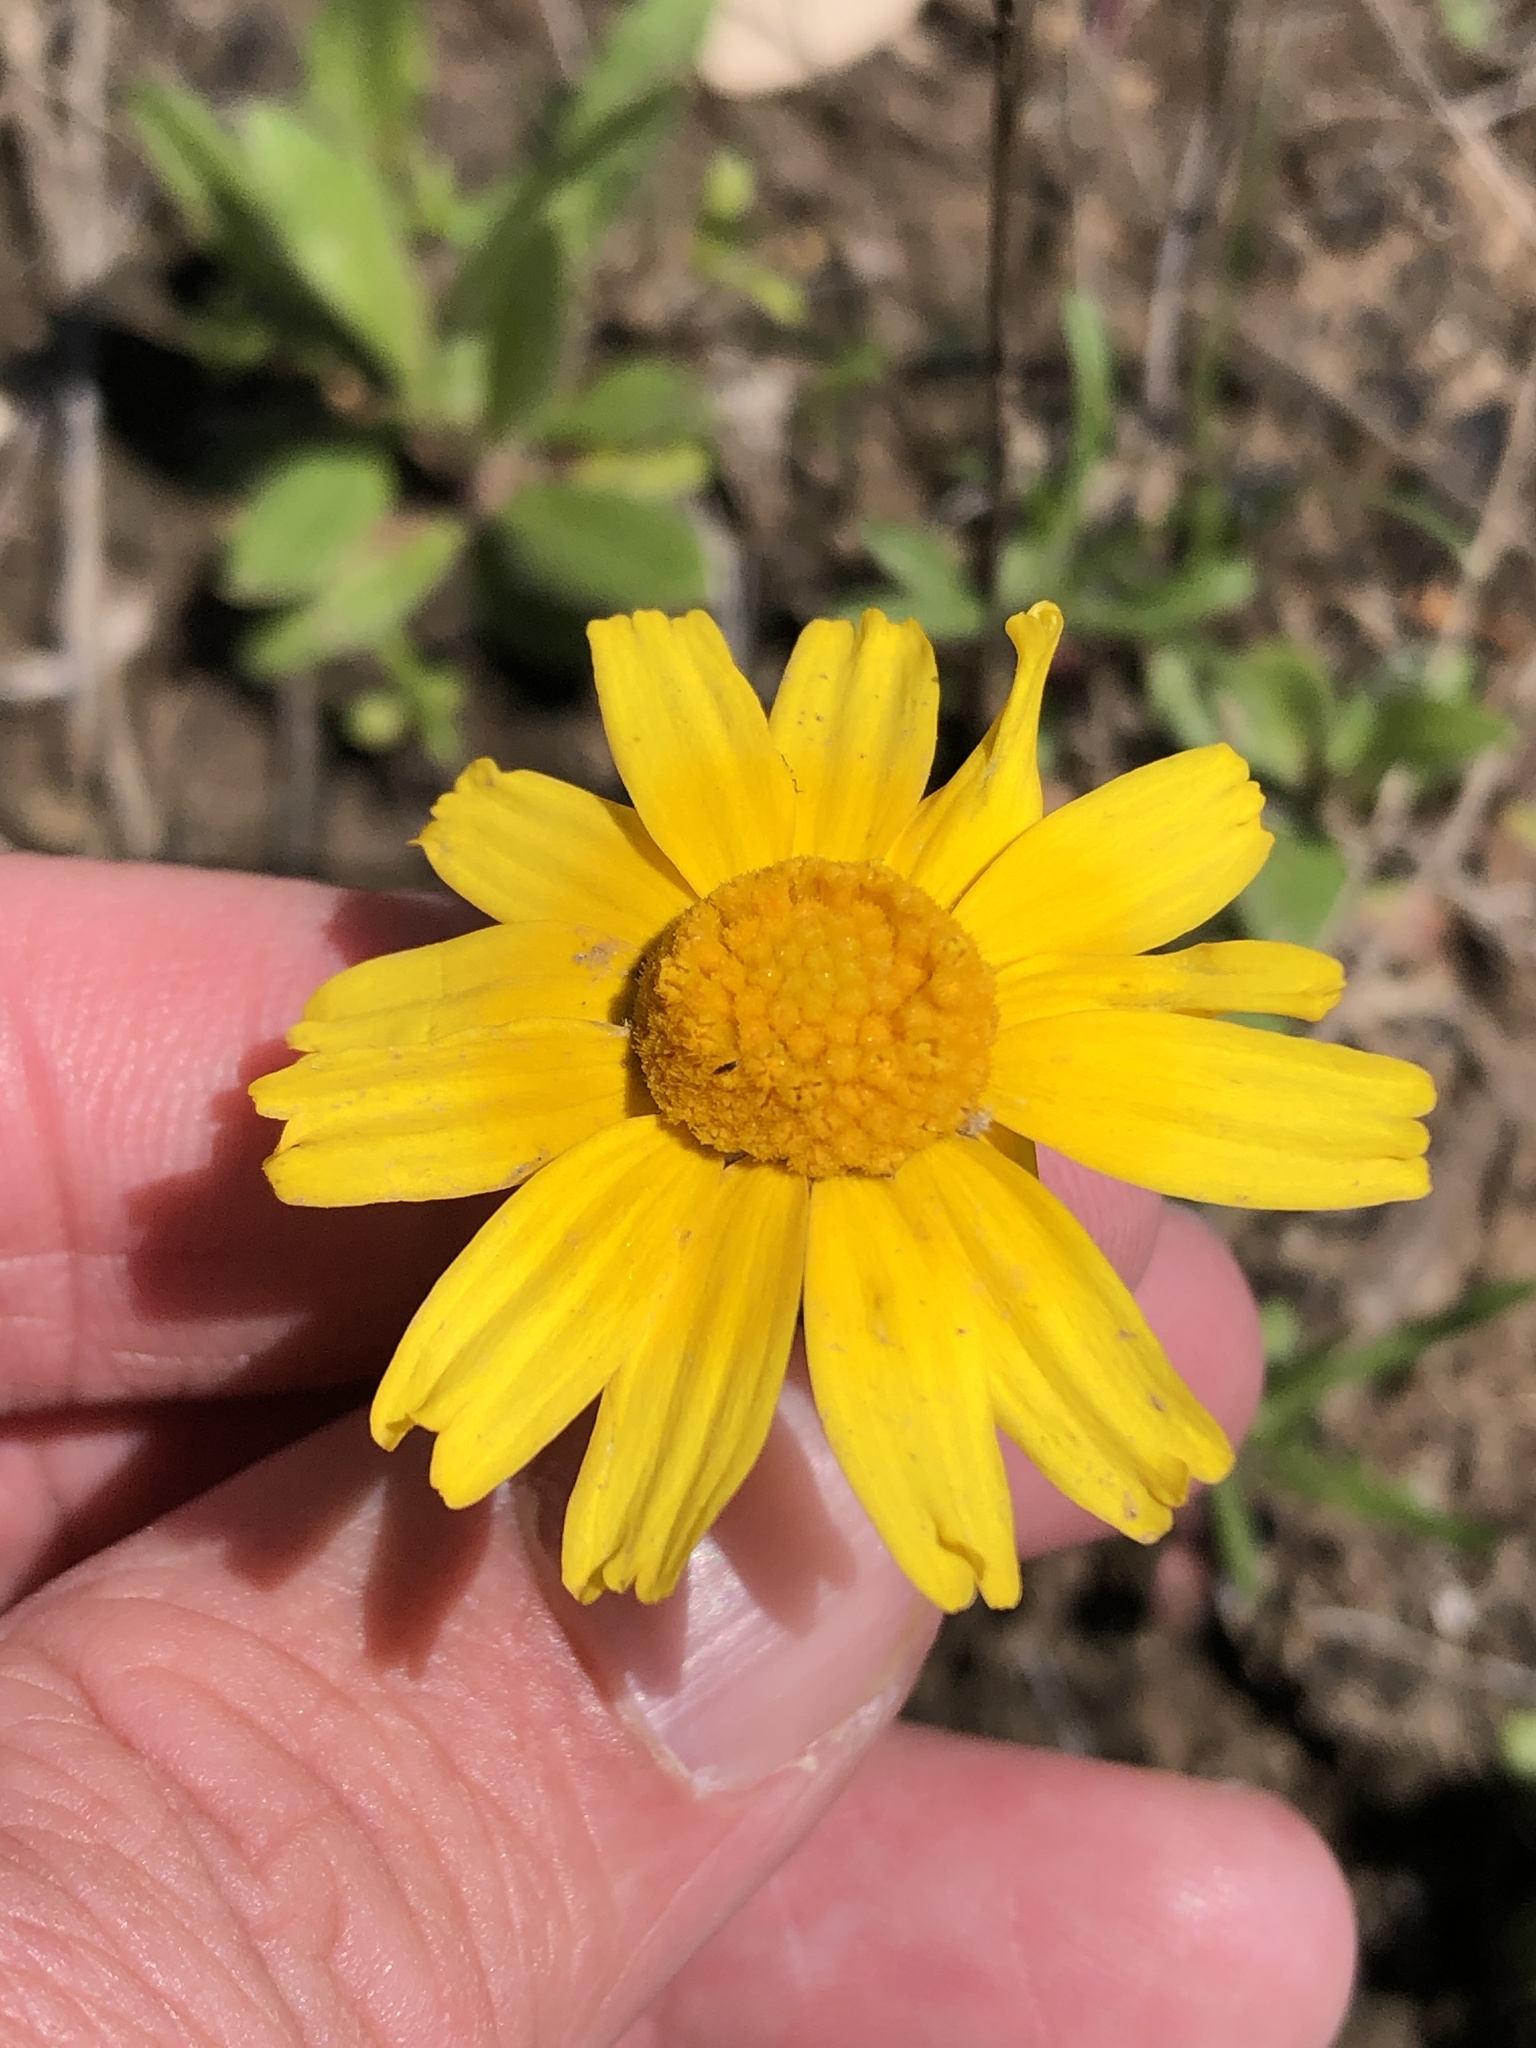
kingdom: Plantae
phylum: Tracheophyta
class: Magnoliopsida
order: Asterales
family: Asteraceae
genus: Tetraneuris
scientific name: Tetraneuris scaposa
